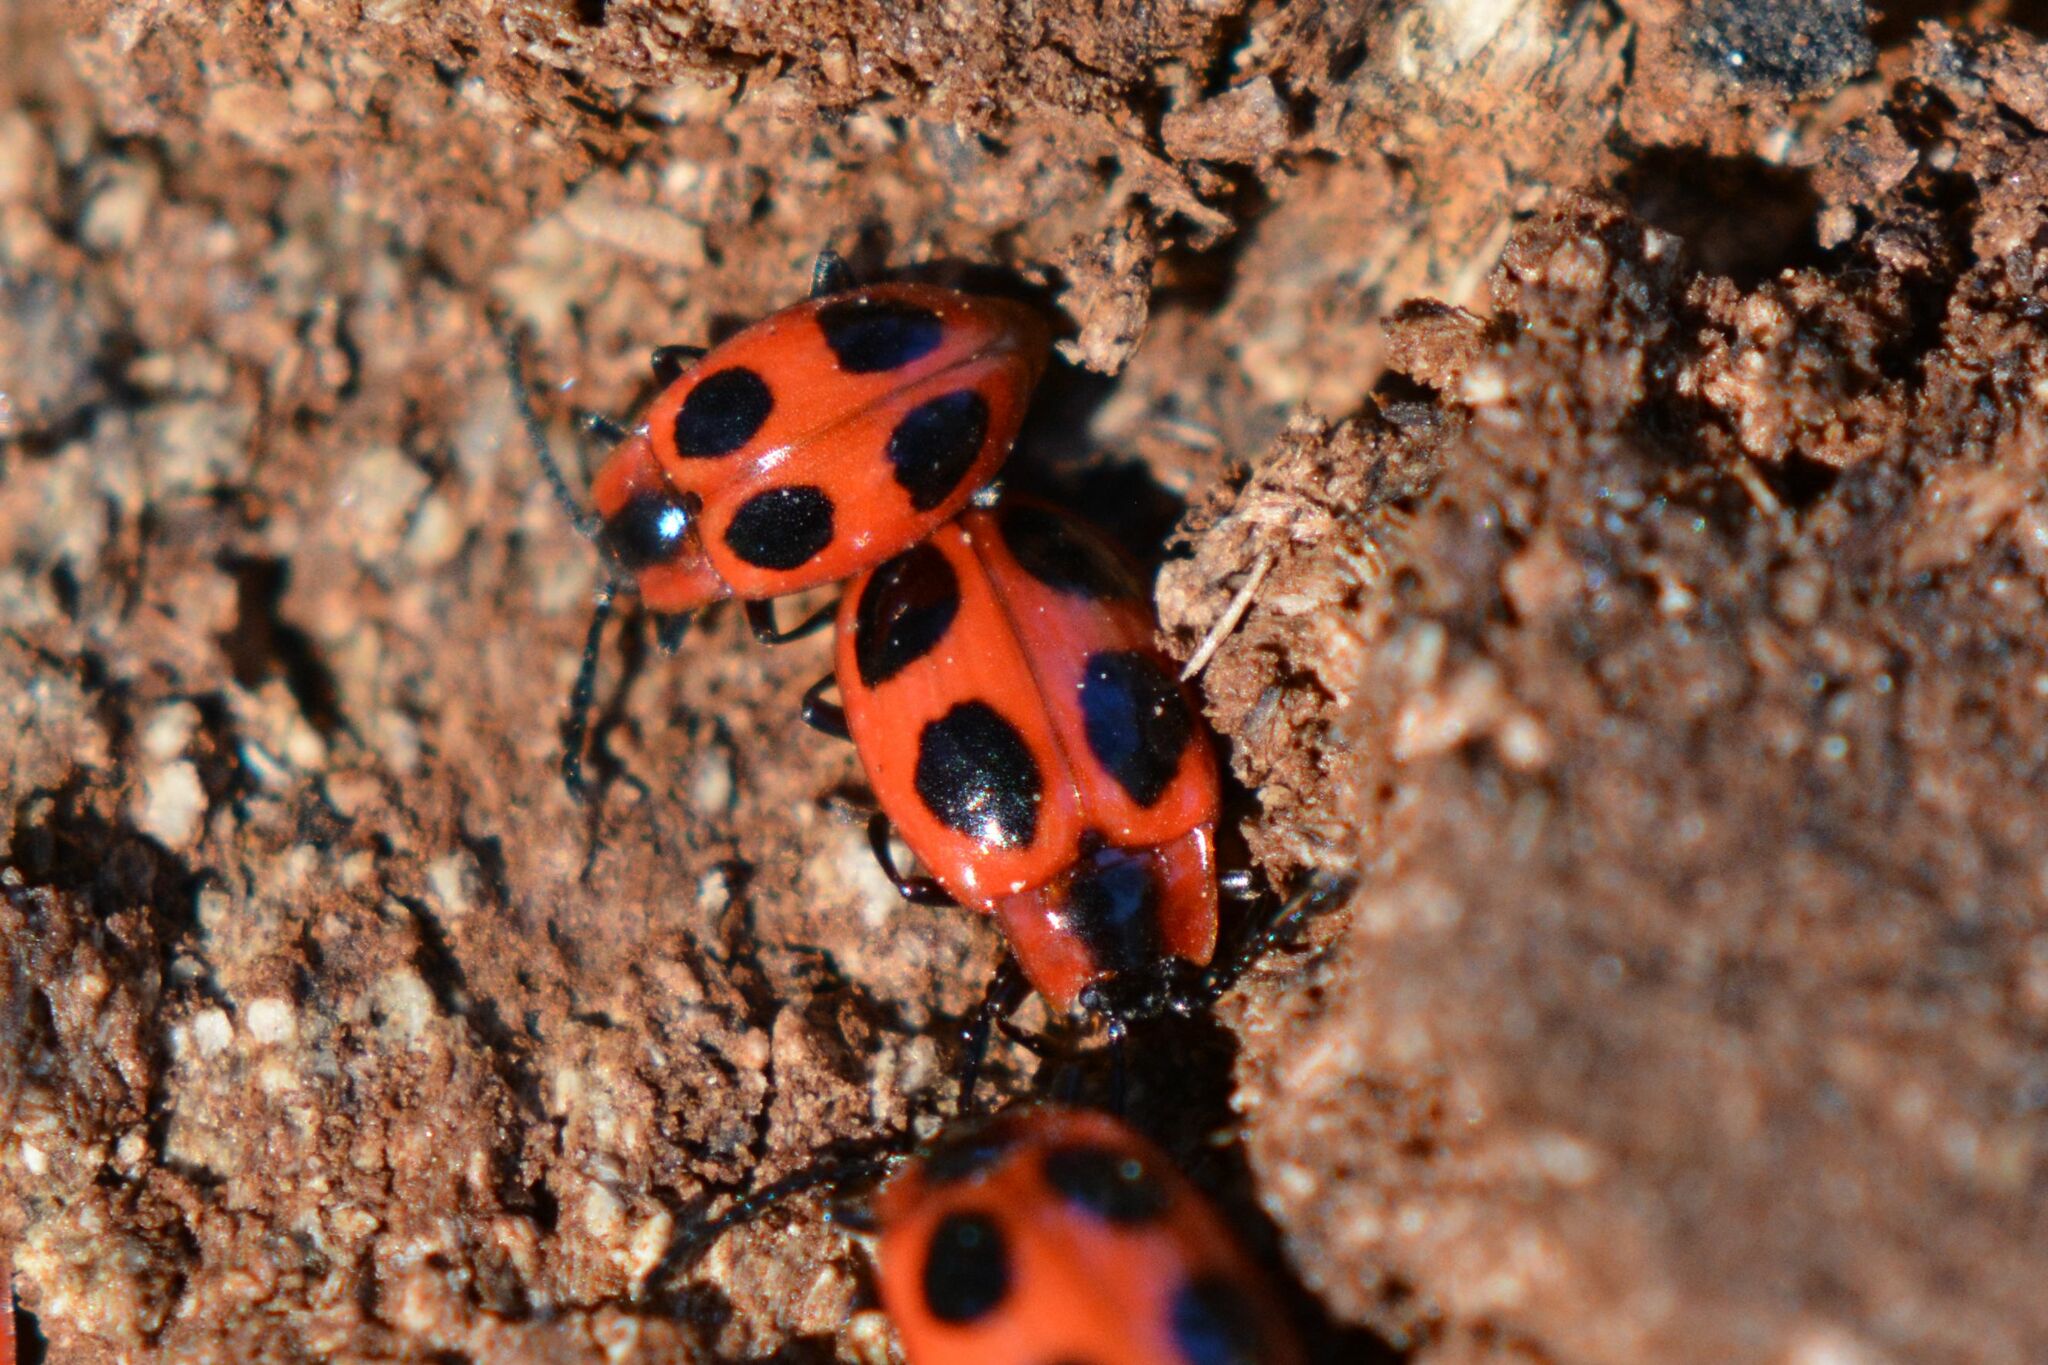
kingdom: Animalia
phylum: Arthropoda
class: Insecta
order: Coleoptera
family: Endomychidae
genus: Endomychus
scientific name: Endomychus coccineus
